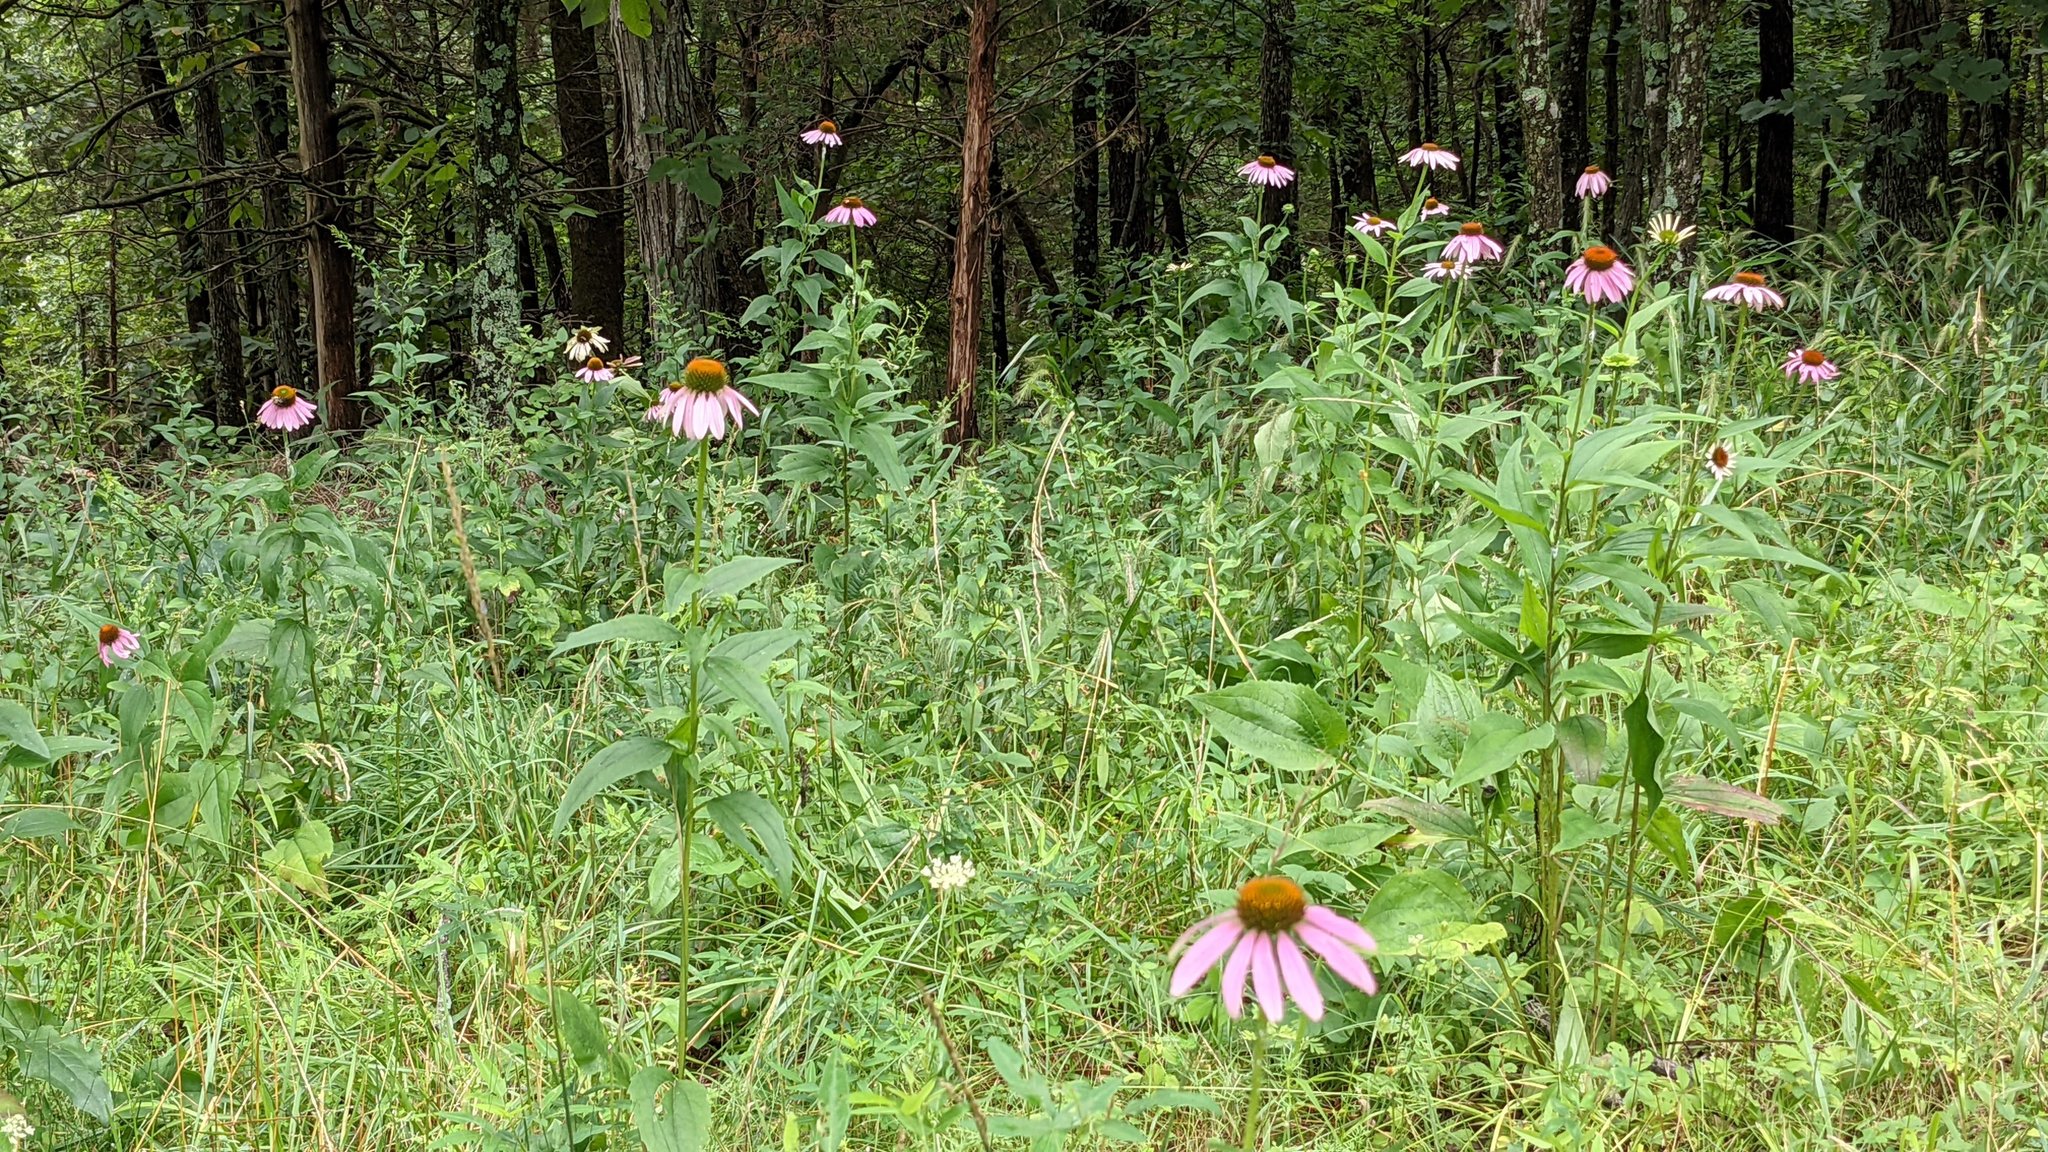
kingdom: Plantae
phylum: Tracheophyta
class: Magnoliopsida
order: Asterales
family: Asteraceae
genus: Echinacea
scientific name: Echinacea purpurea
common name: Broad-leaved purple coneflower
